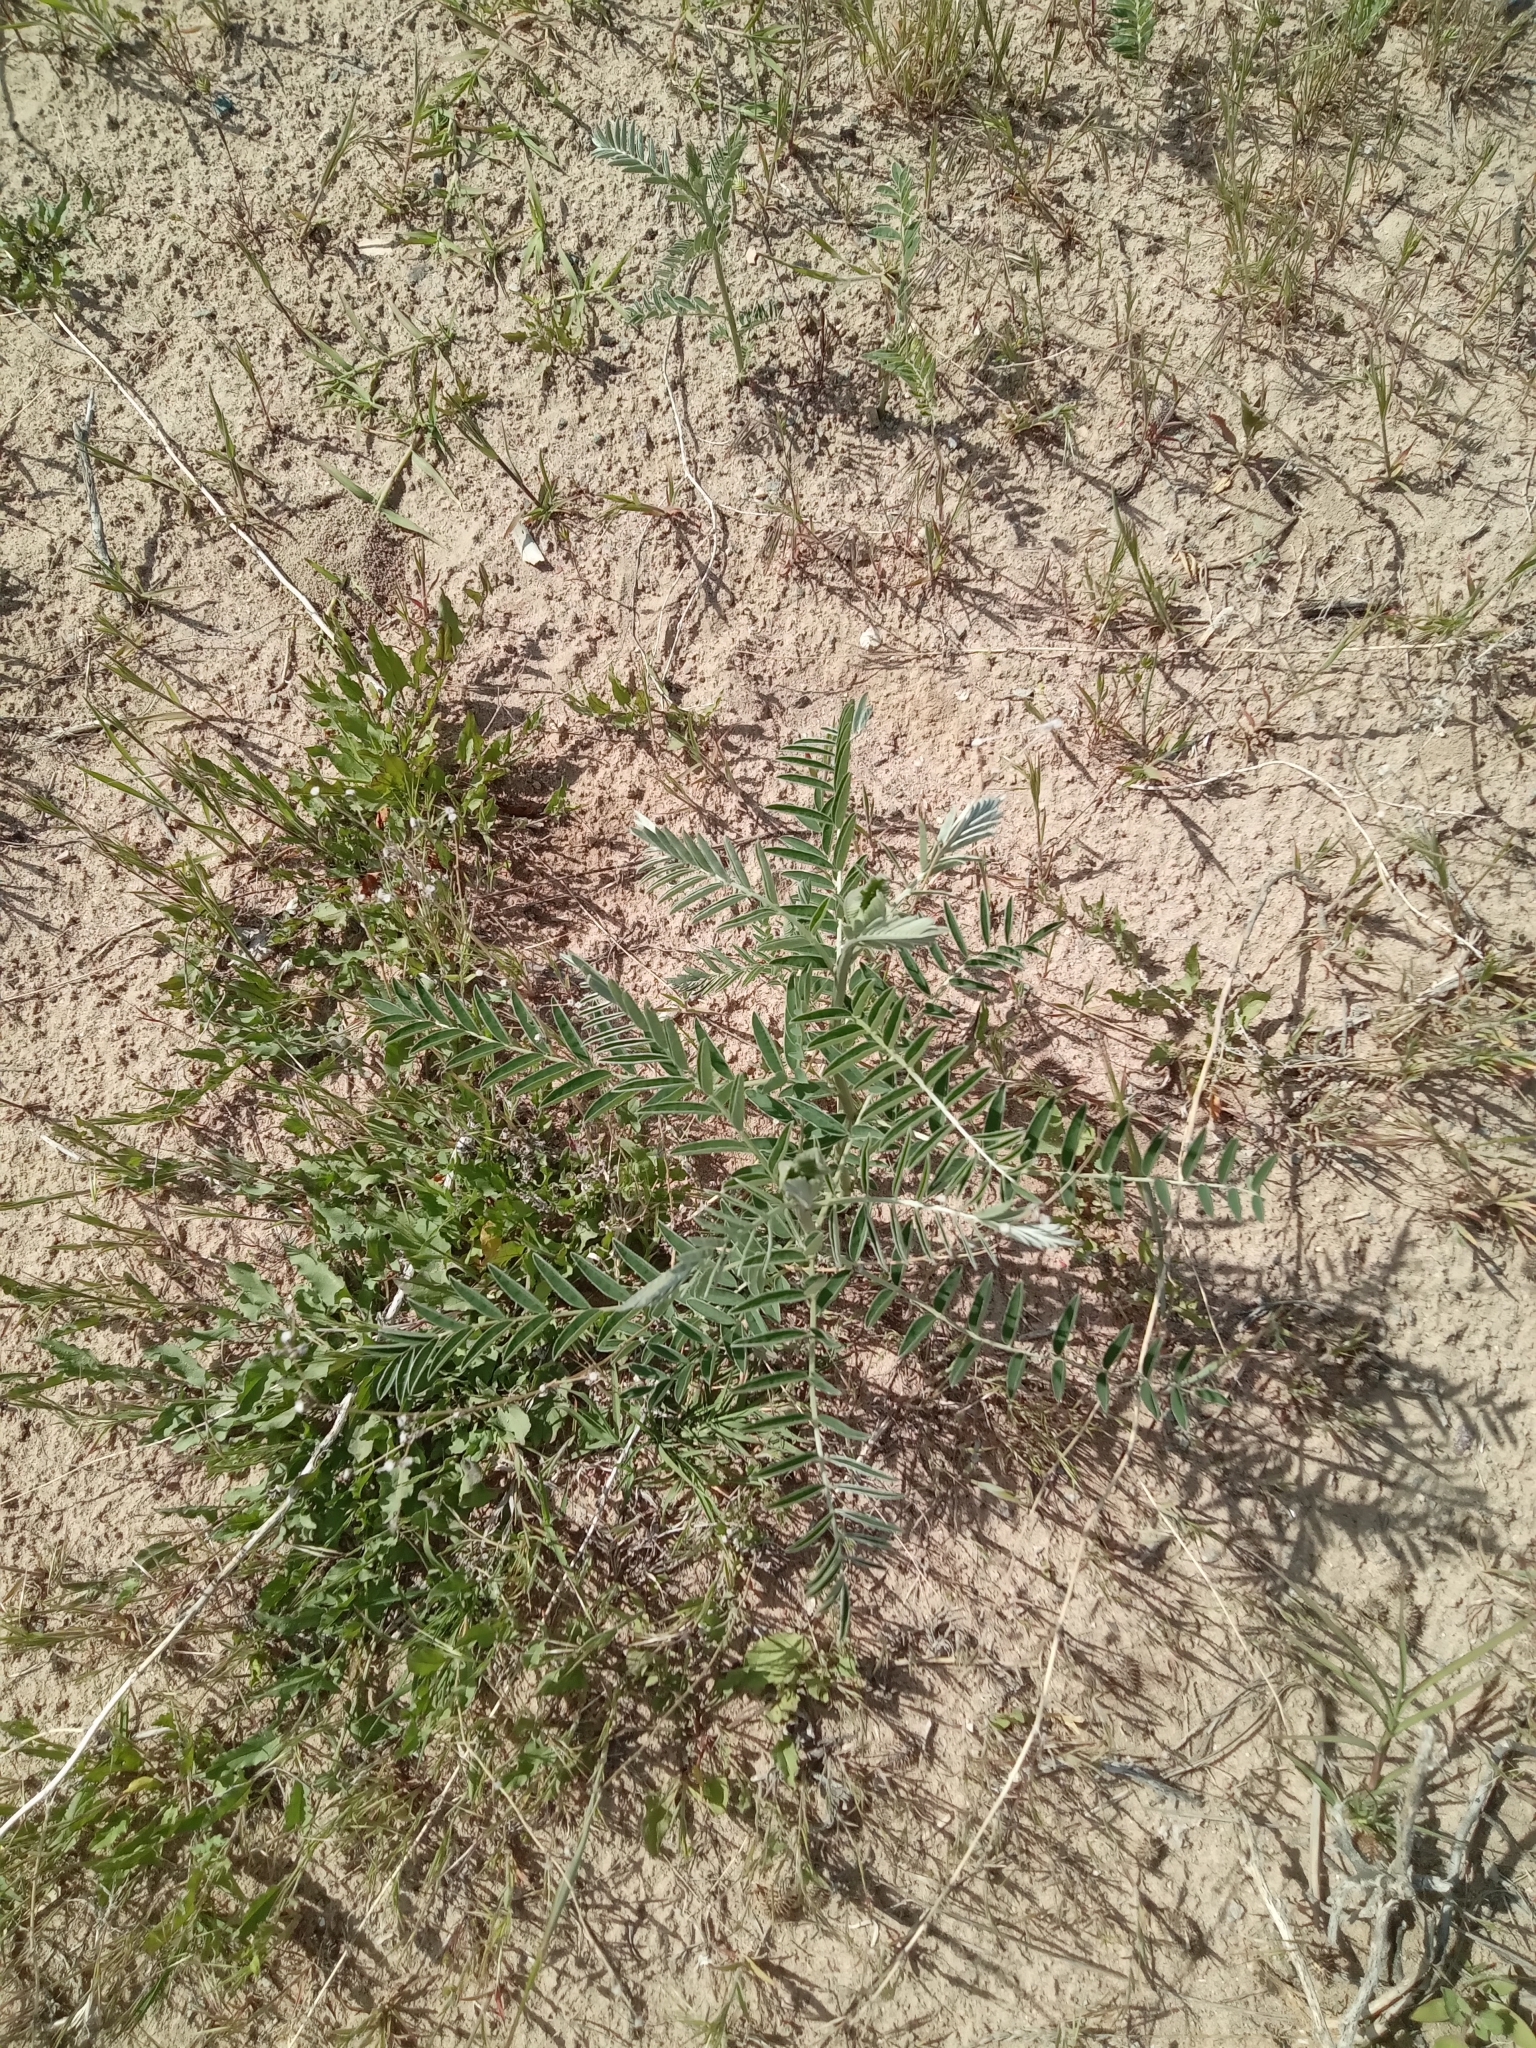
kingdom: Plantae
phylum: Tracheophyta
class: Magnoliopsida
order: Fabales
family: Fabaceae
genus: Sophora
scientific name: Sophora alopecuroides
